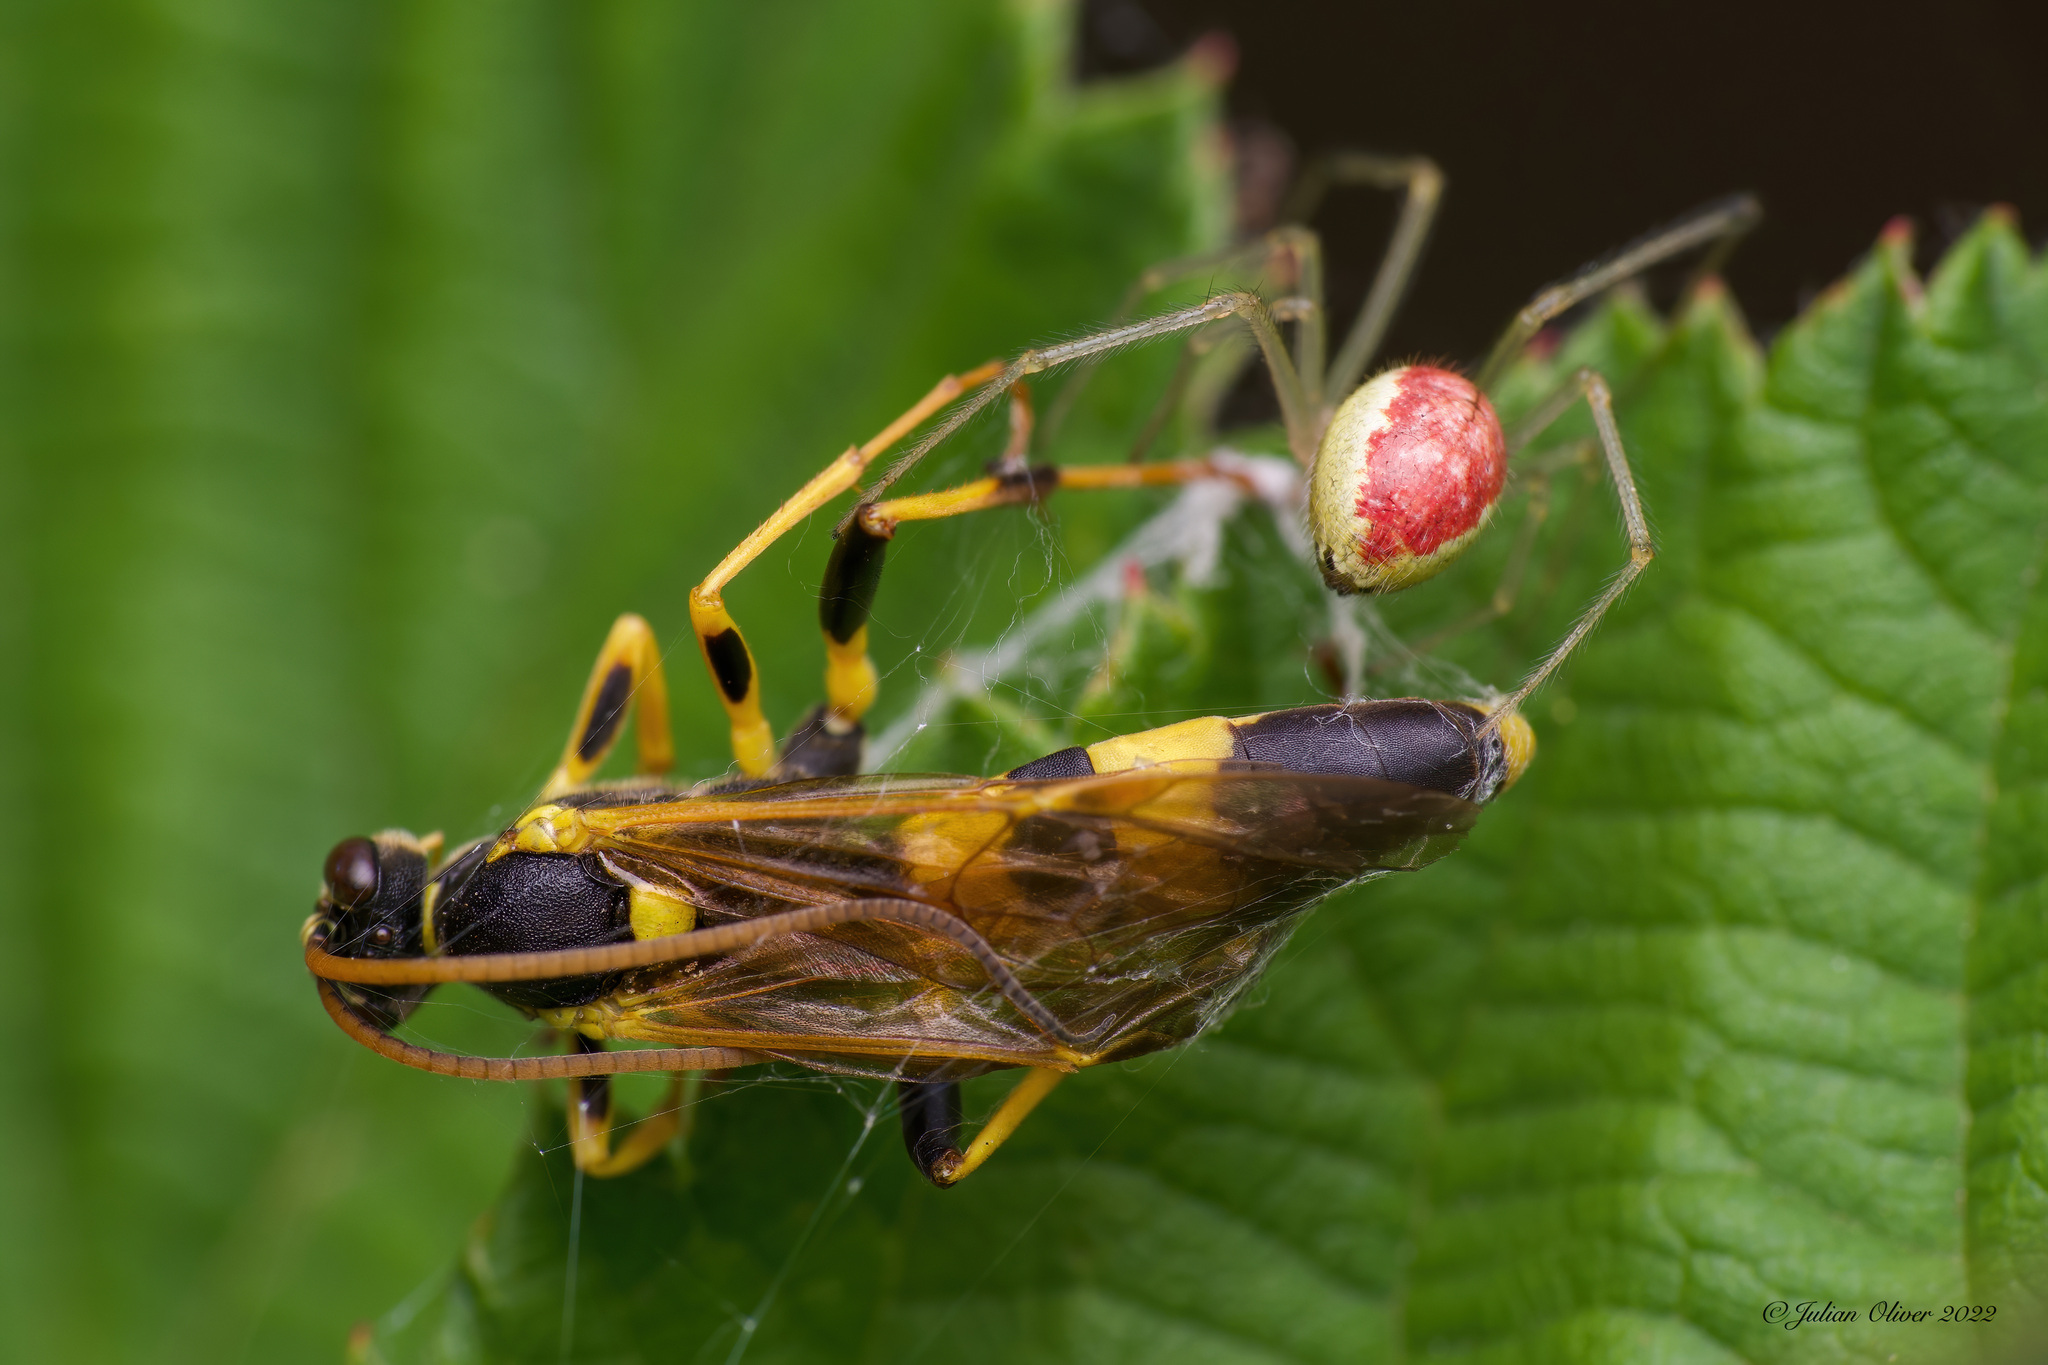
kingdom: Animalia
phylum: Arthropoda
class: Insecta
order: Hymenoptera
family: Ichneumonidae
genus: Amblyteles
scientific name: Amblyteles armatorius
